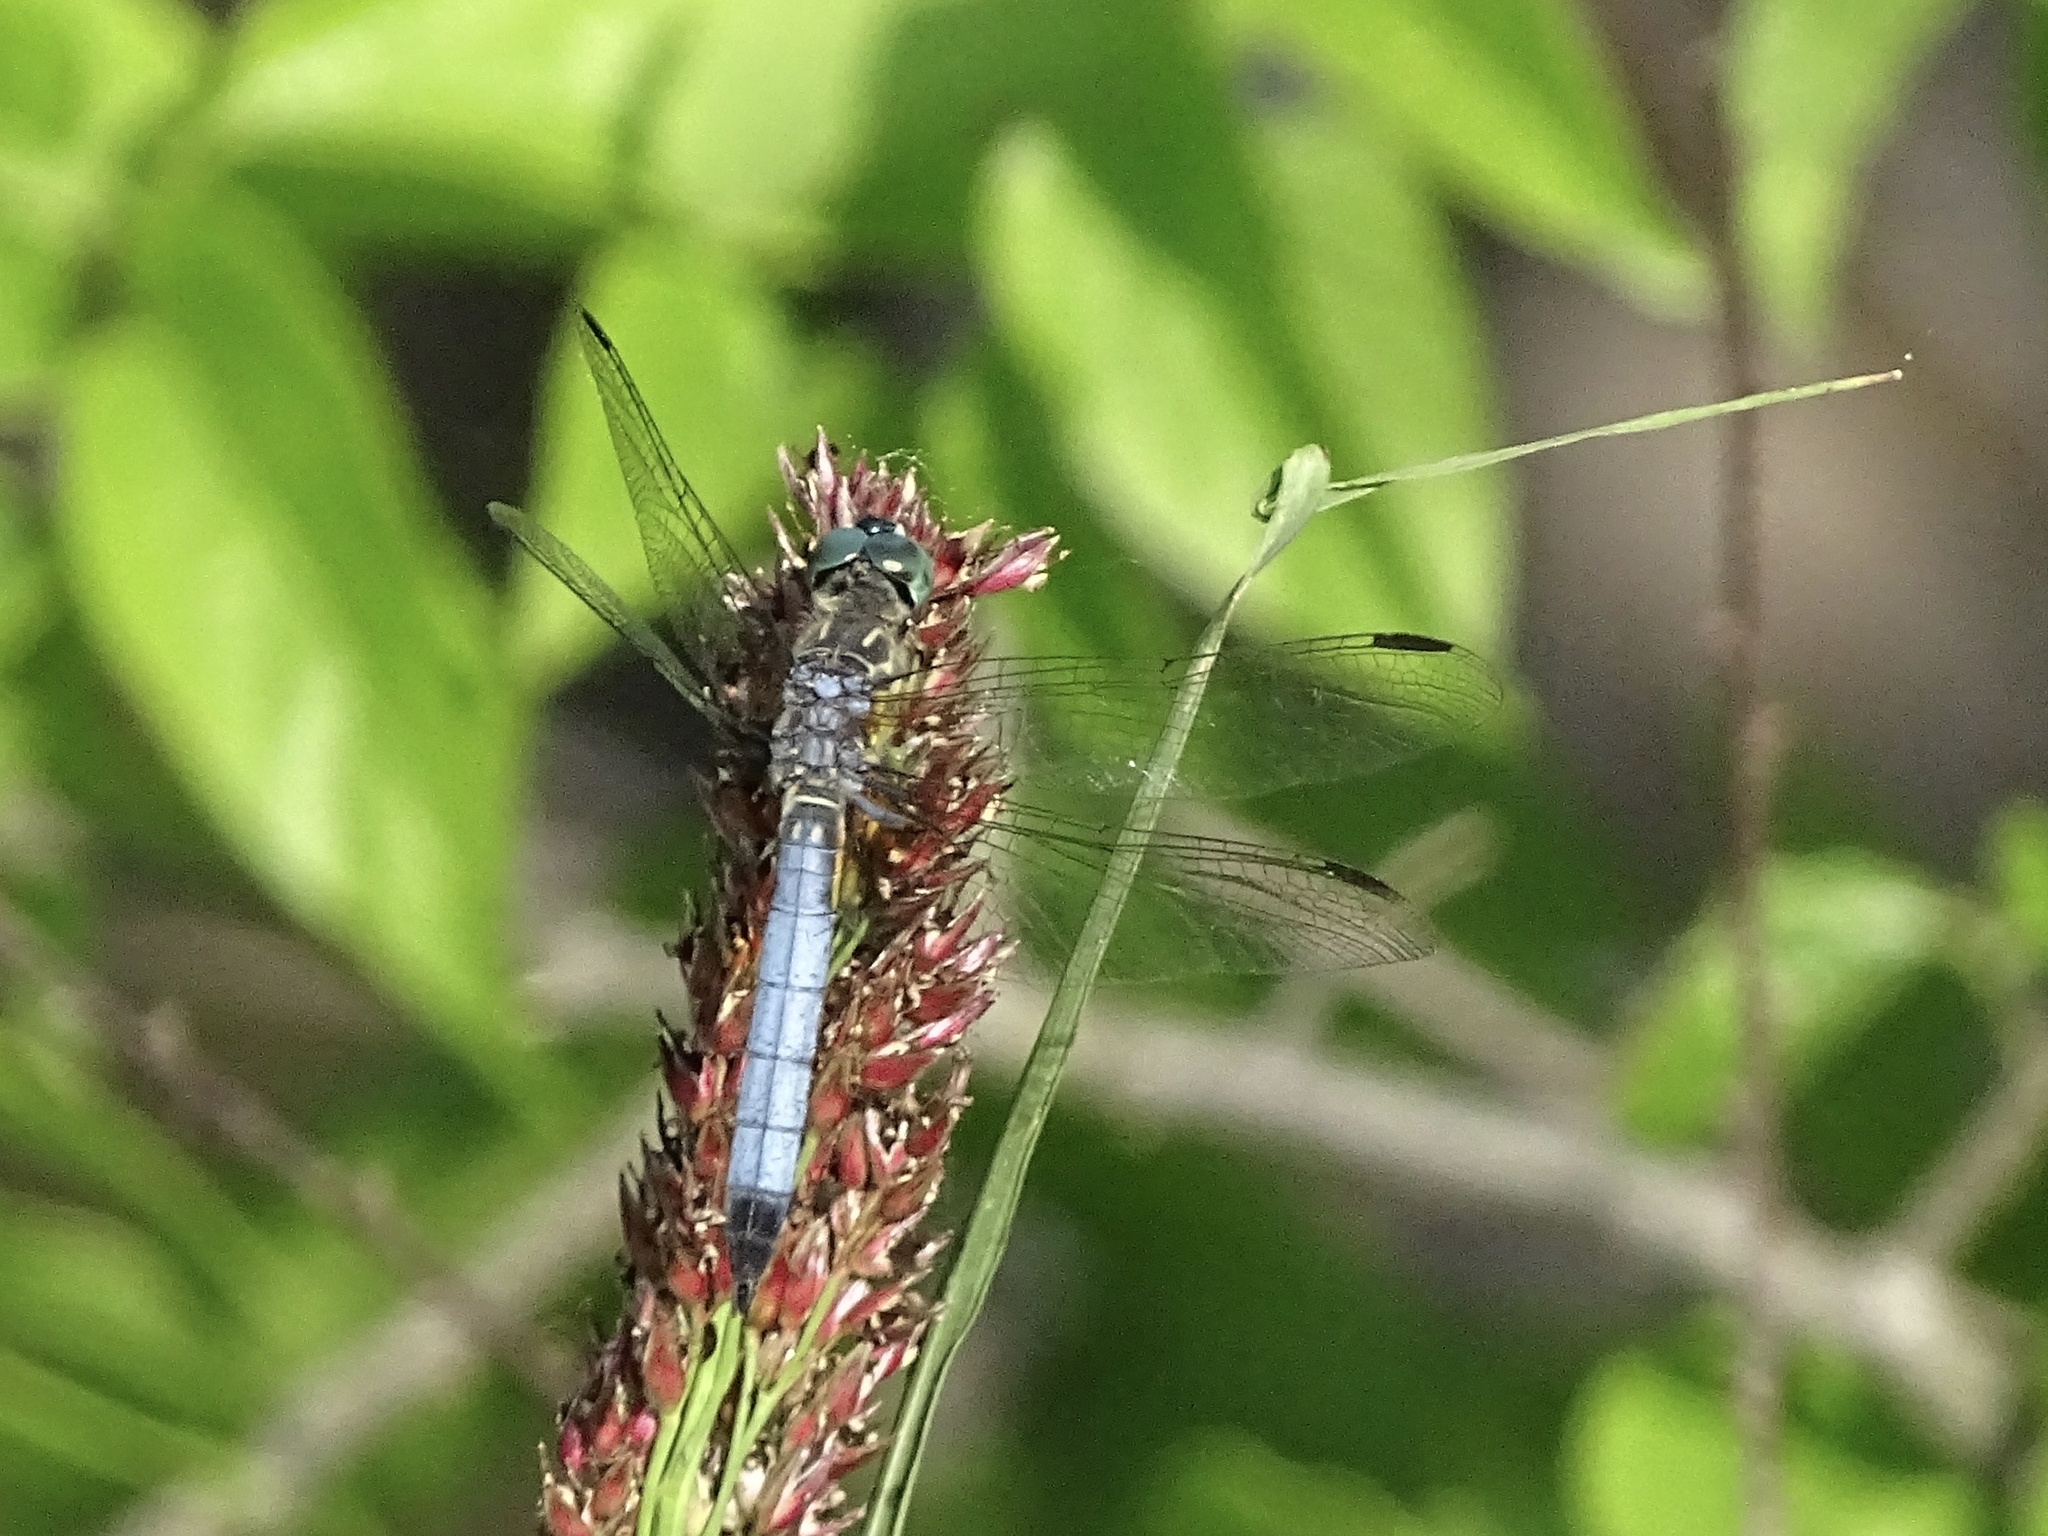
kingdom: Animalia
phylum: Arthropoda
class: Insecta
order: Odonata
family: Libellulidae
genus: Pachydiplax
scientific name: Pachydiplax longipennis
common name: Blue dasher
